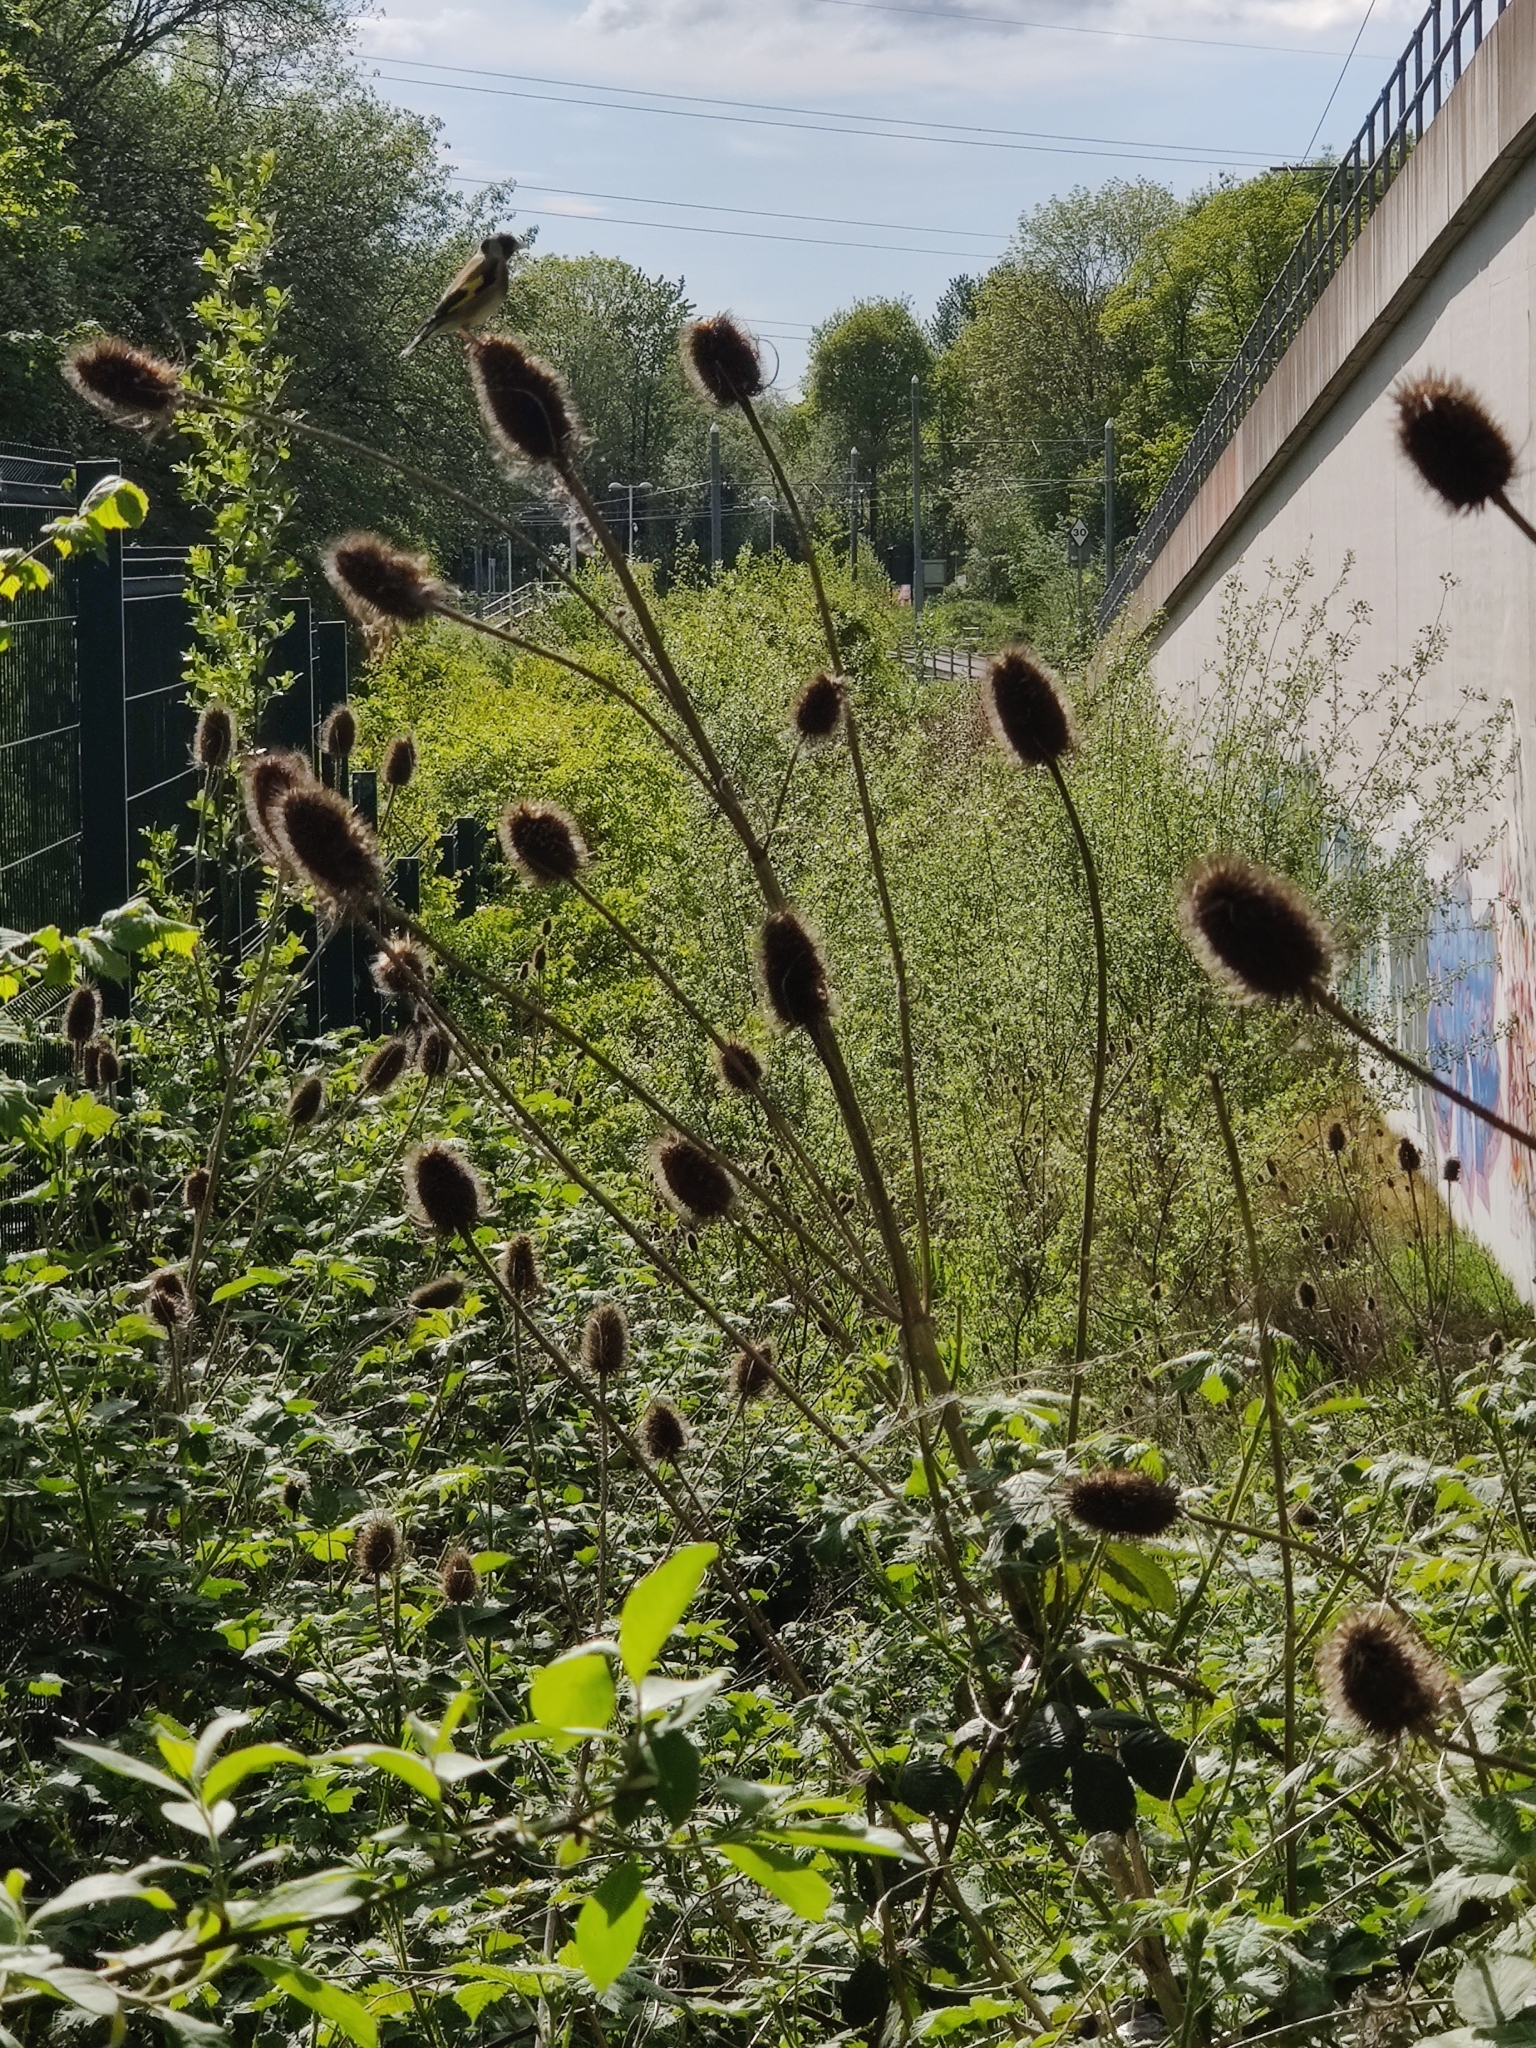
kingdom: Plantae
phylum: Tracheophyta
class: Magnoliopsida
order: Dipsacales
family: Caprifoliaceae
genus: Dipsacus
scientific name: Dipsacus fullonum
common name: Teasel
